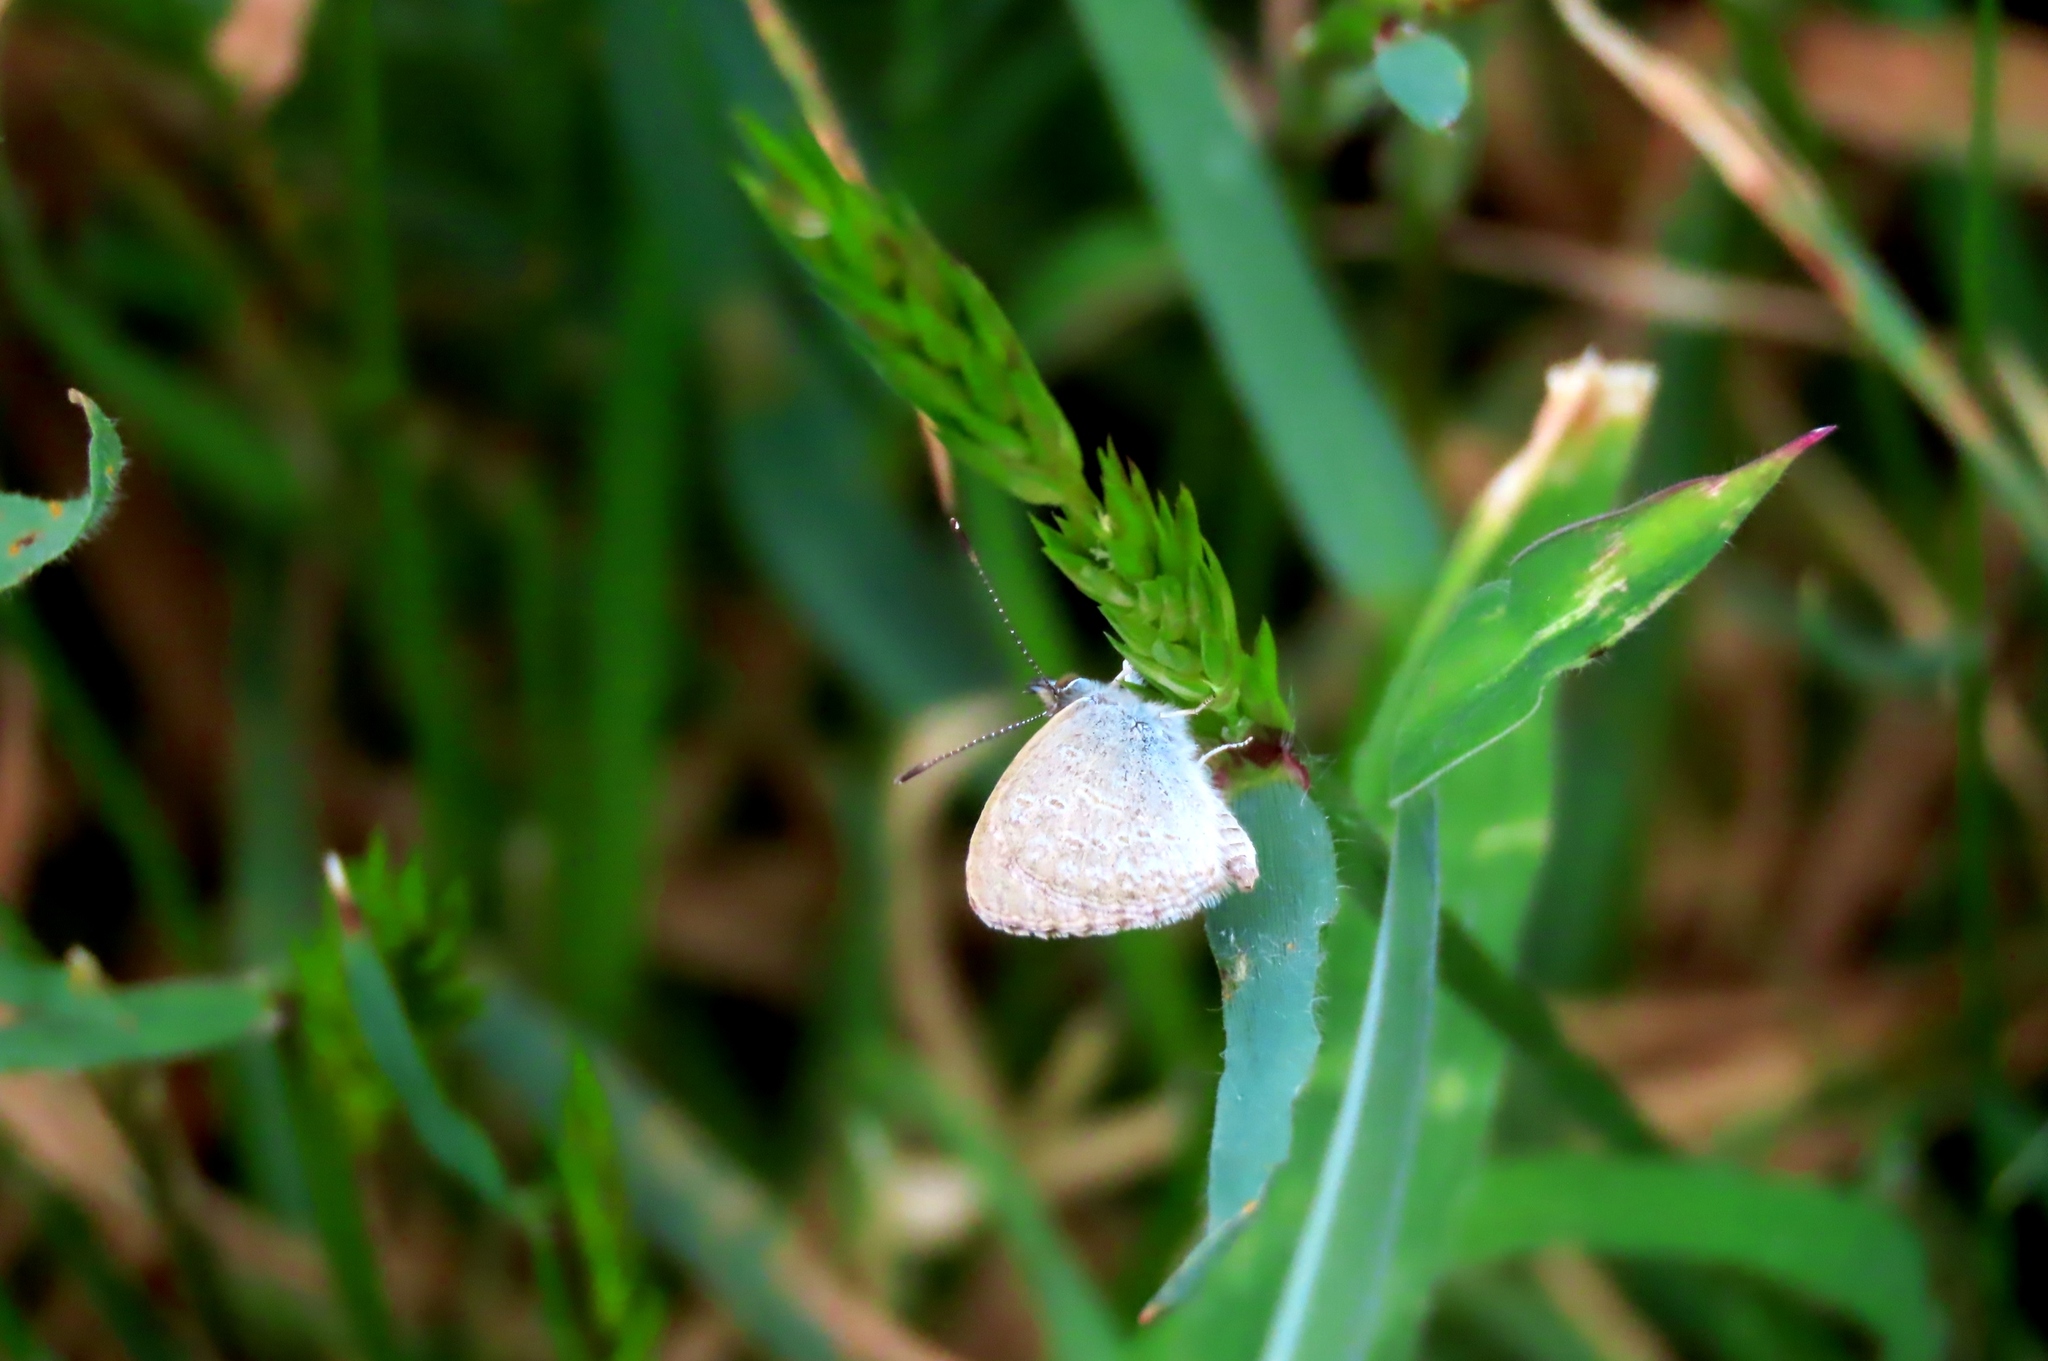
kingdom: Animalia
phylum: Arthropoda
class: Insecta
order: Lepidoptera
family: Lycaenidae
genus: Zizina
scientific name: Zizina labradus
